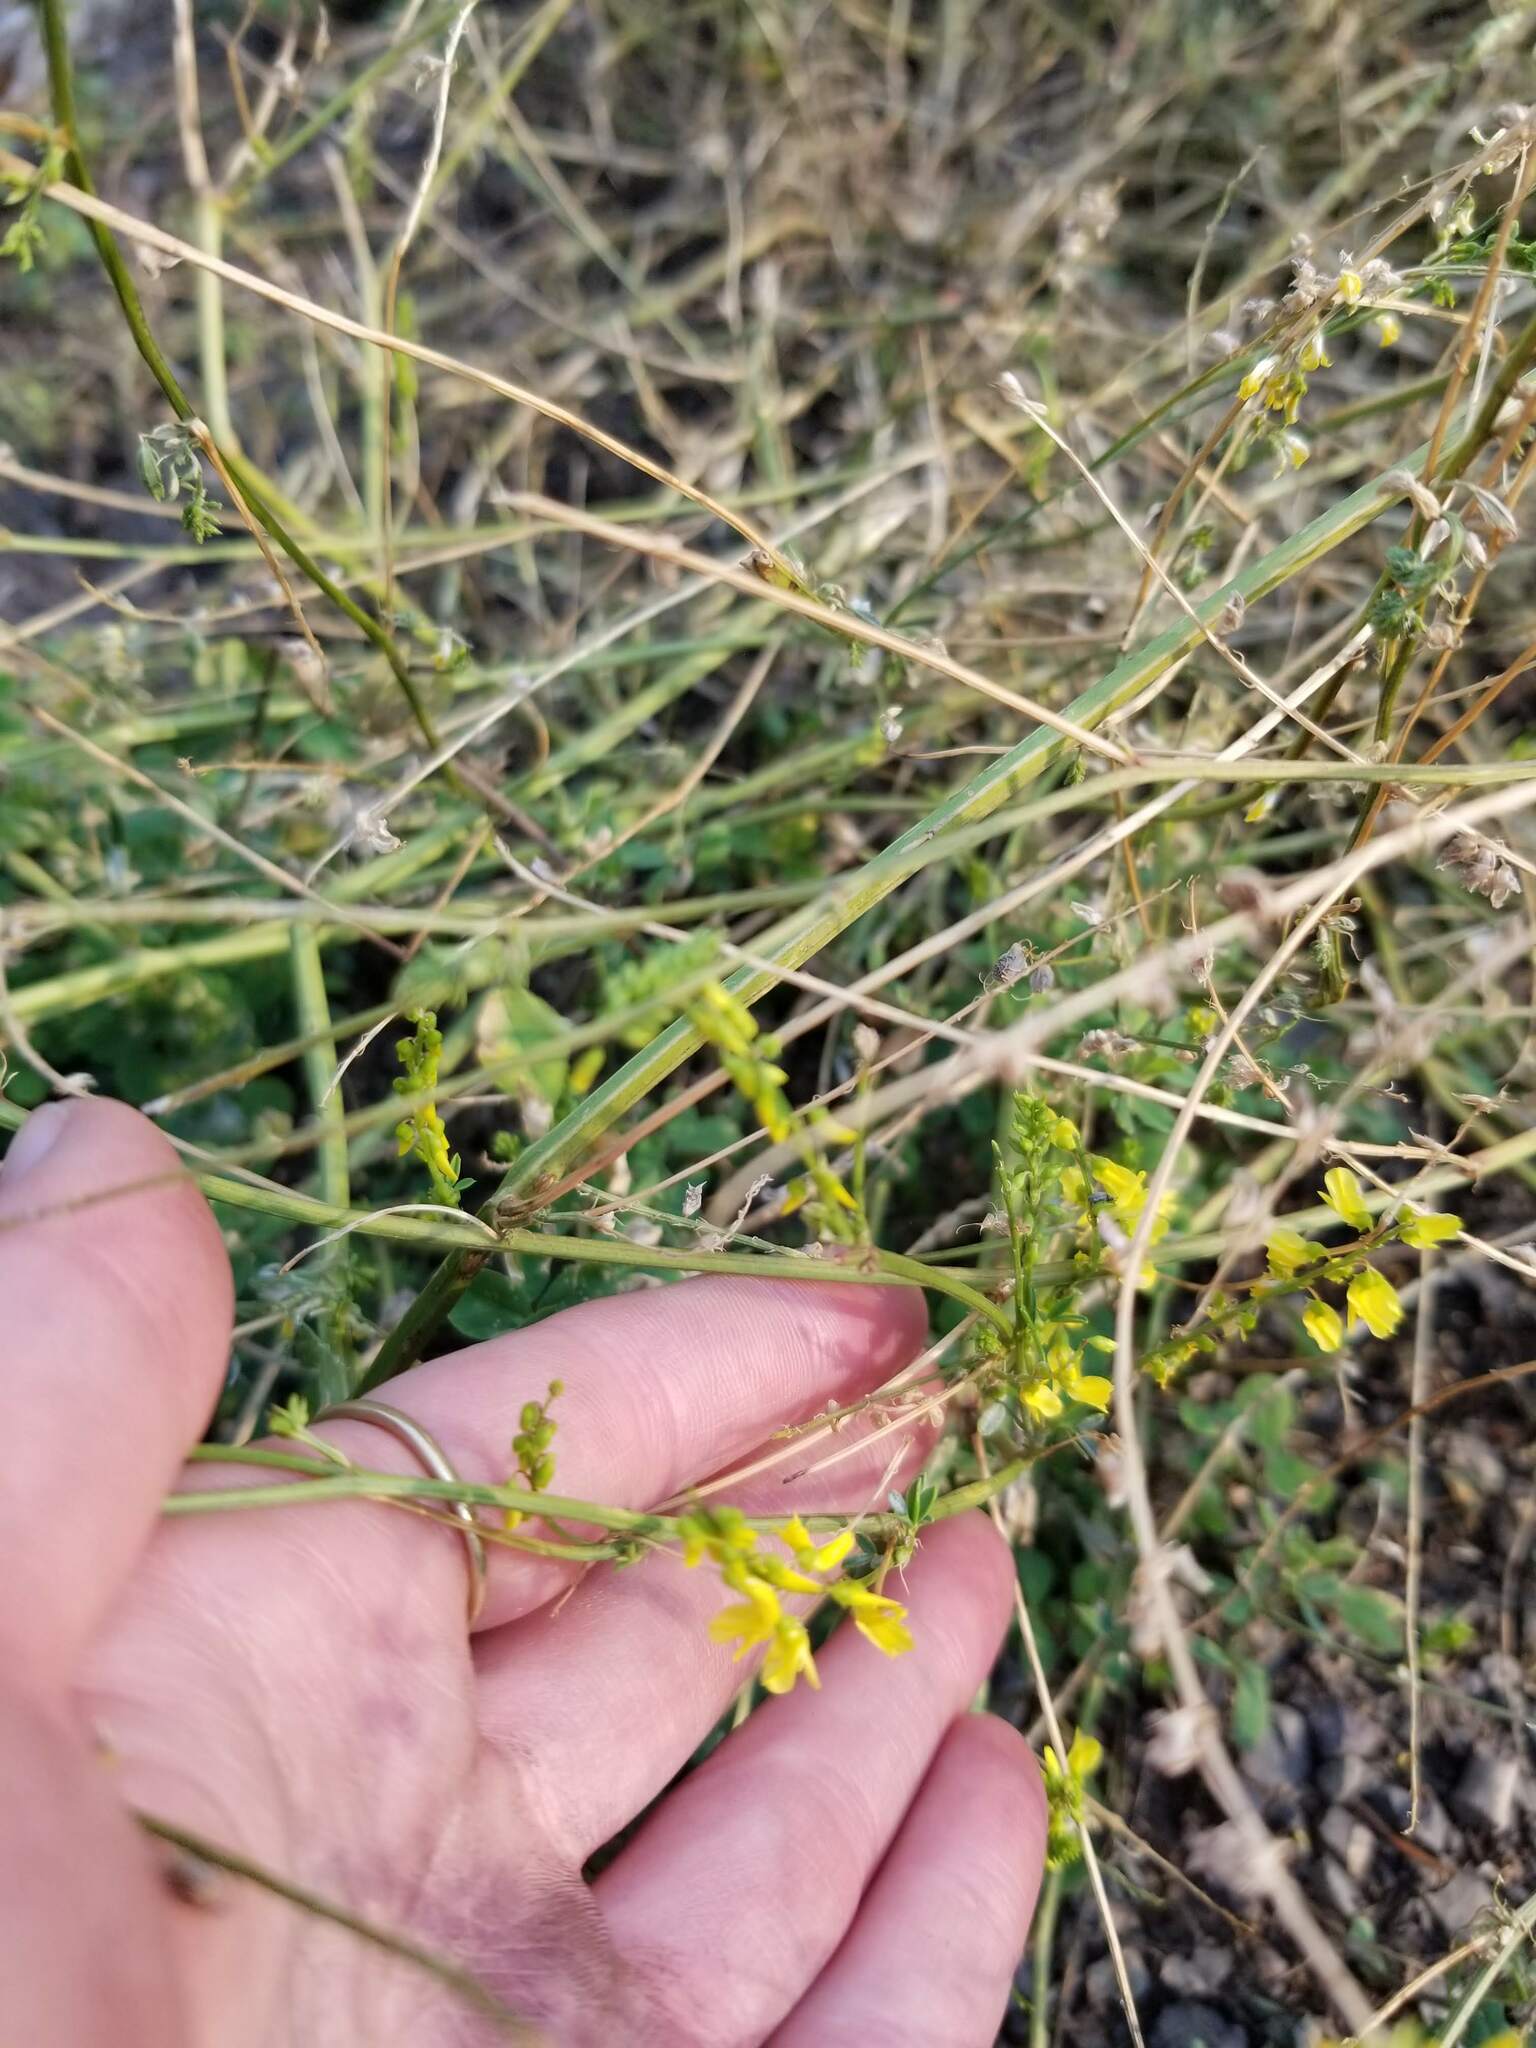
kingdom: Plantae
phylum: Tracheophyta
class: Magnoliopsida
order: Fabales
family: Fabaceae
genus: Melilotus
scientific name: Melilotus officinalis
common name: Sweetclover
